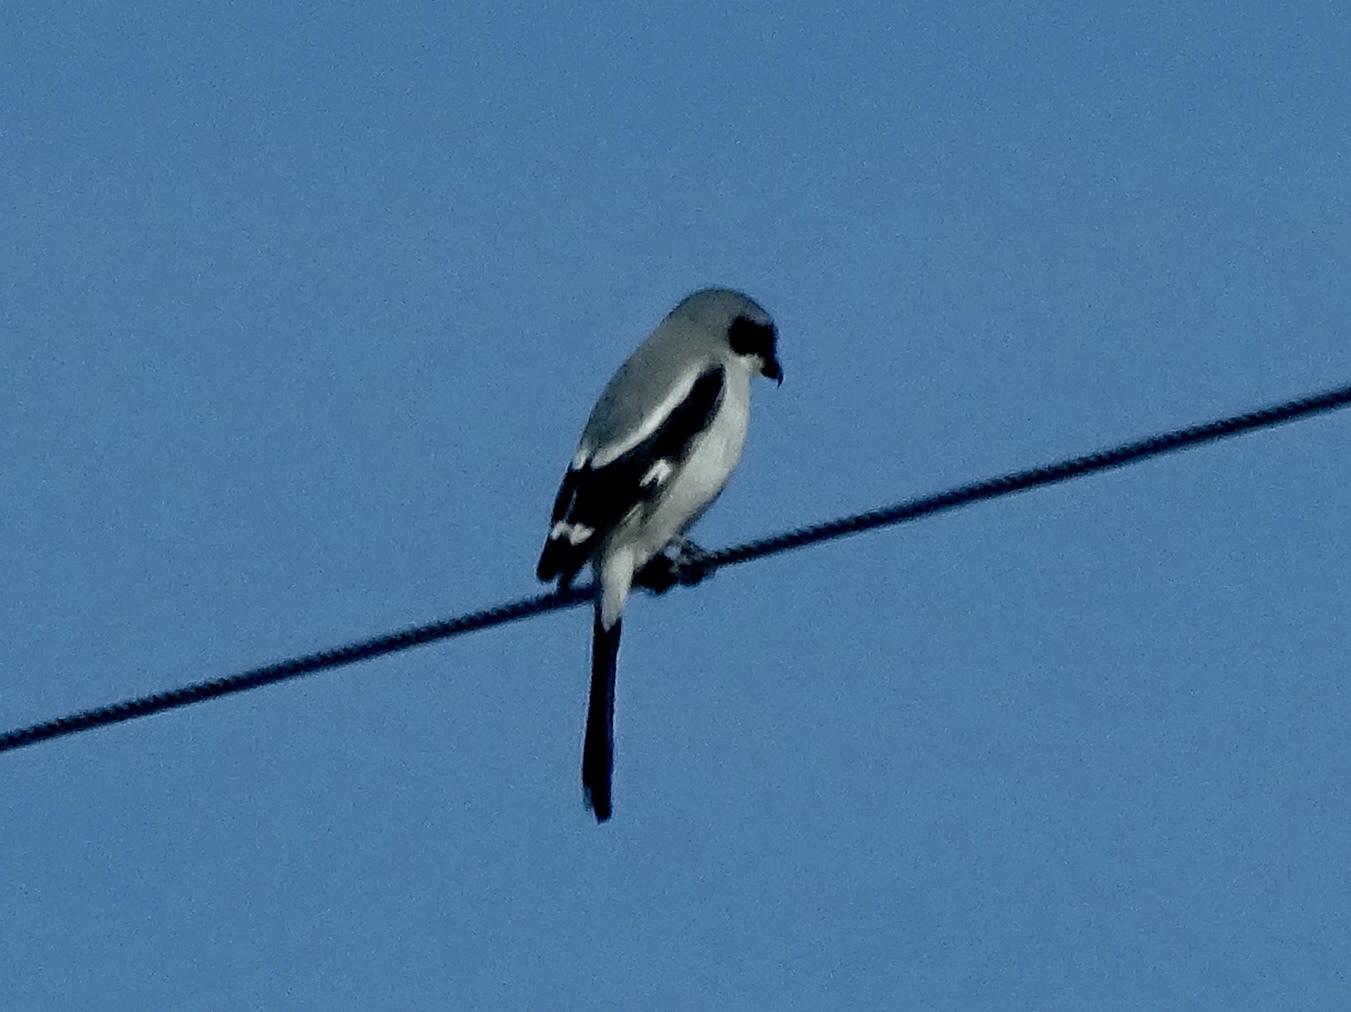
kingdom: Animalia
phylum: Chordata
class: Aves
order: Passeriformes
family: Laniidae
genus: Lanius
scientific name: Lanius ludovicianus
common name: Loggerhead shrike
